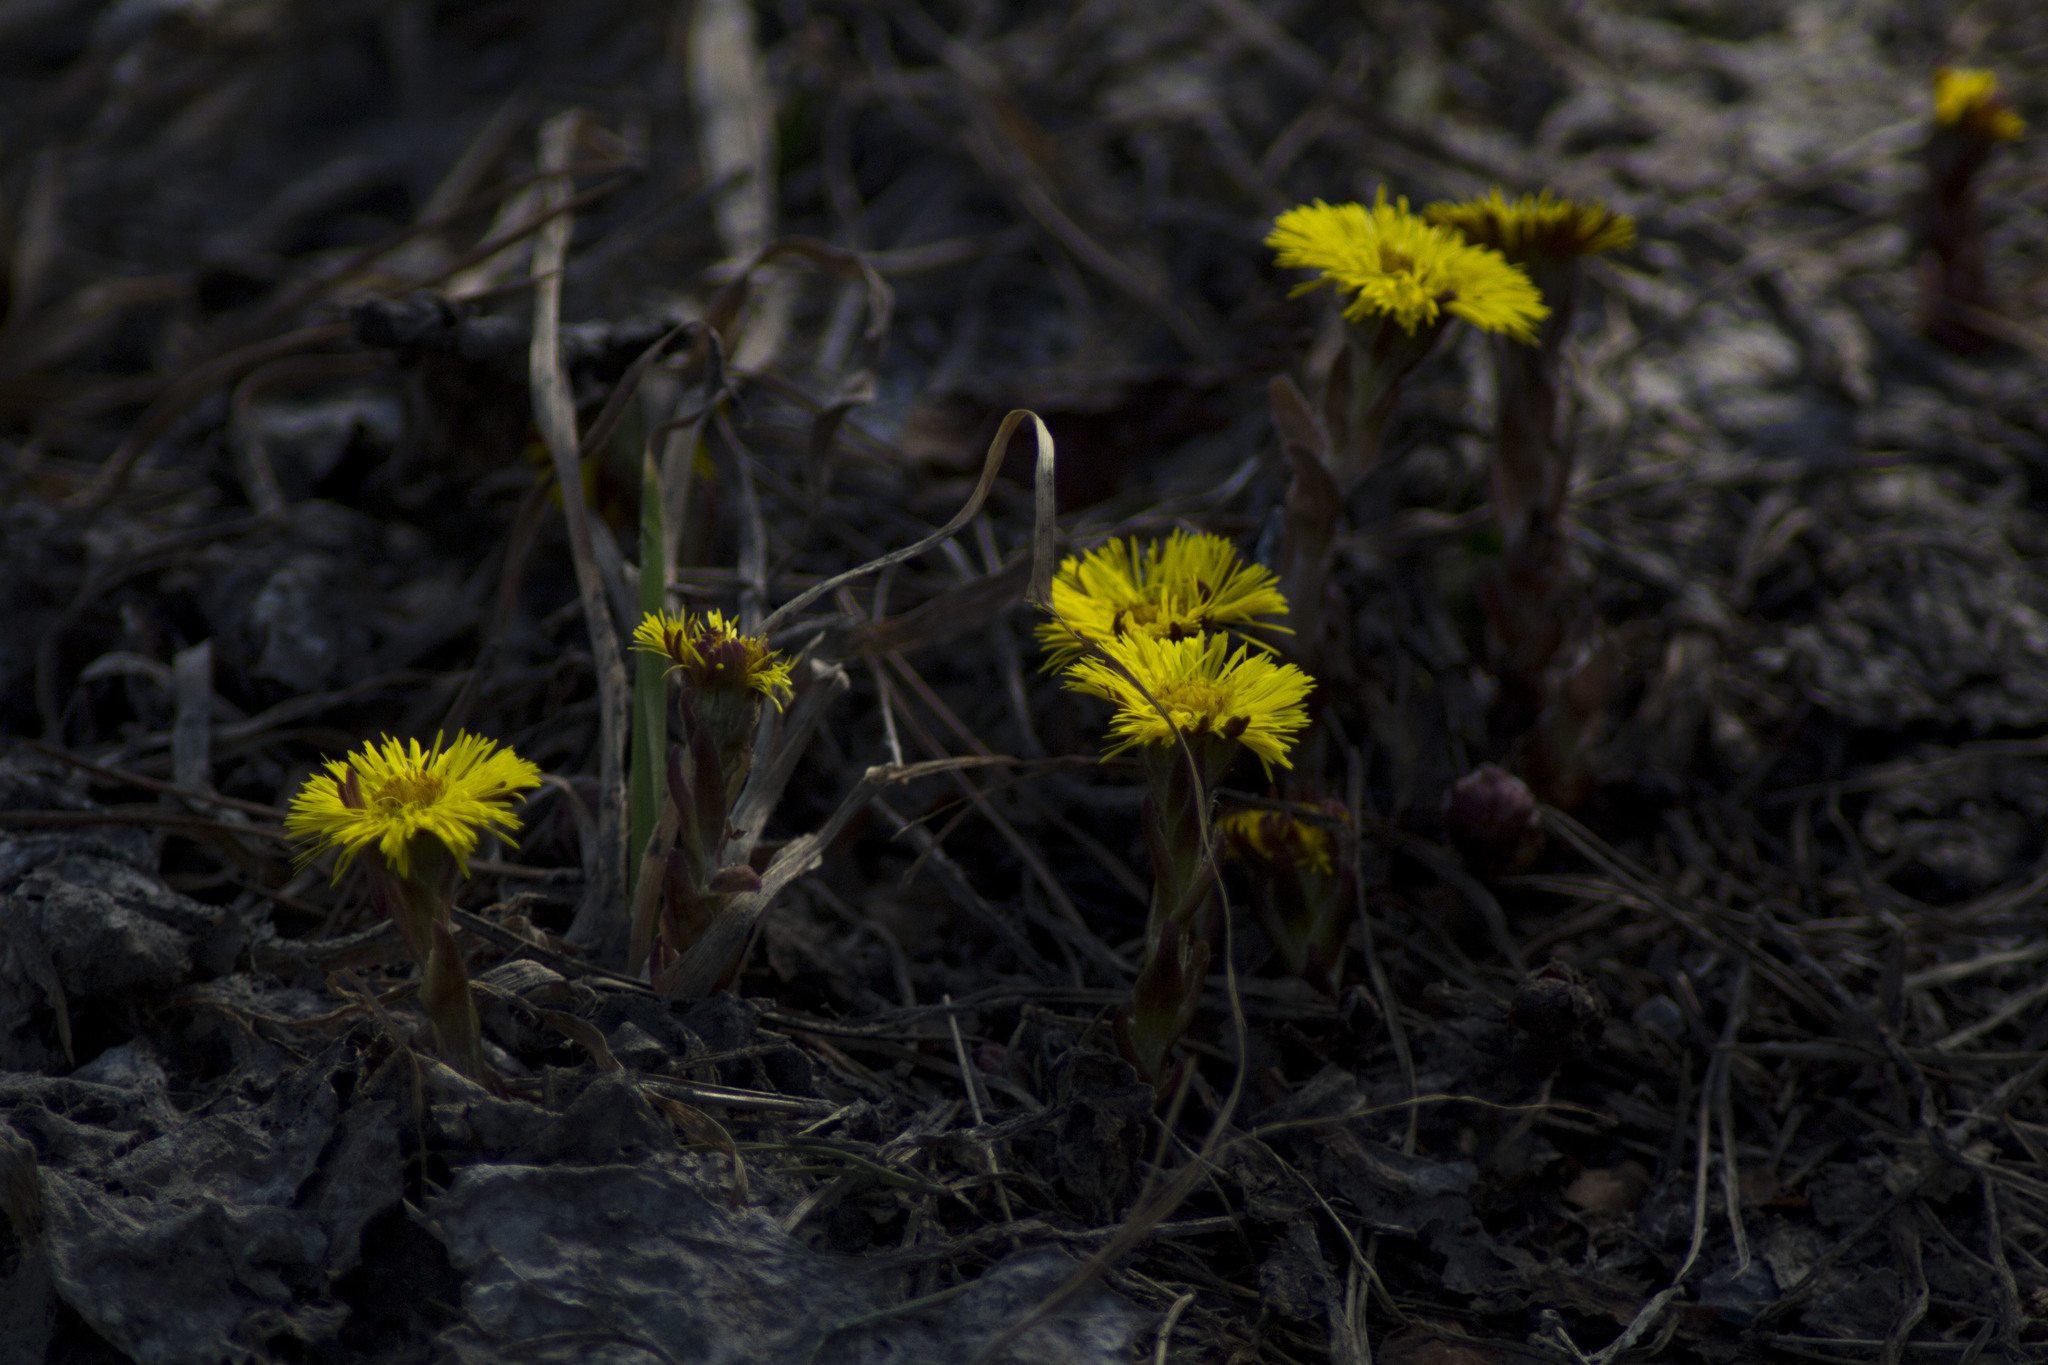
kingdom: Plantae
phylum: Tracheophyta
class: Magnoliopsida
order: Asterales
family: Asteraceae
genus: Tussilago
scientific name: Tussilago farfara
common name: Coltsfoot
